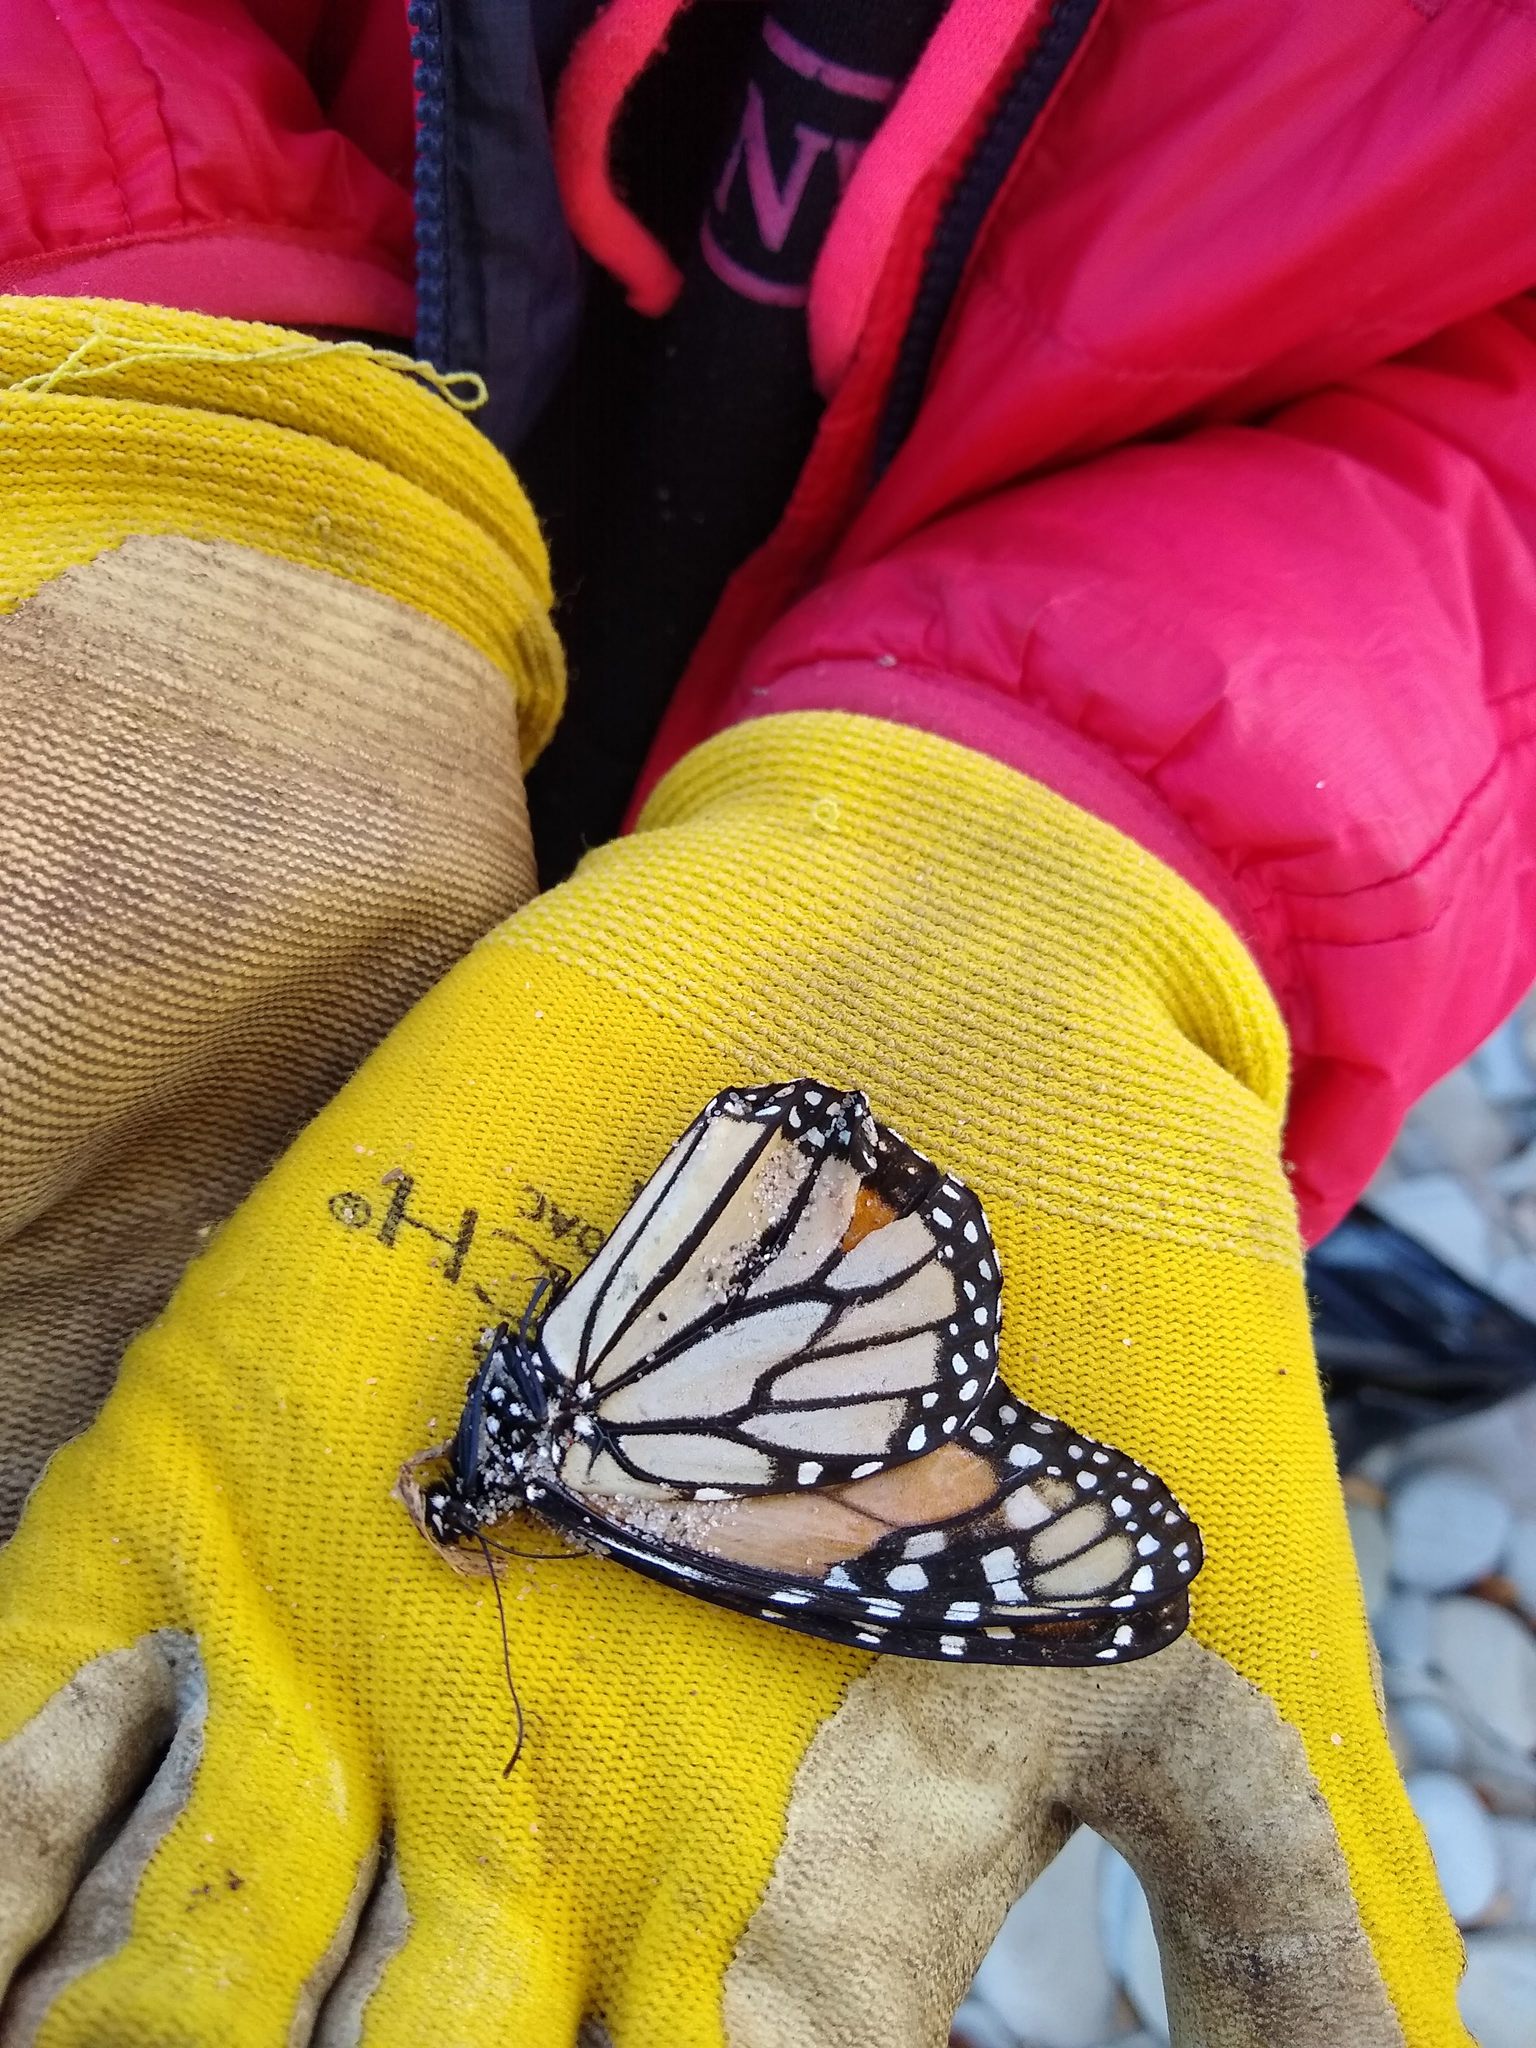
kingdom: Animalia
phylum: Arthropoda
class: Insecta
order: Lepidoptera
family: Nymphalidae
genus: Danaus
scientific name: Danaus plexippus
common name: Monarch
